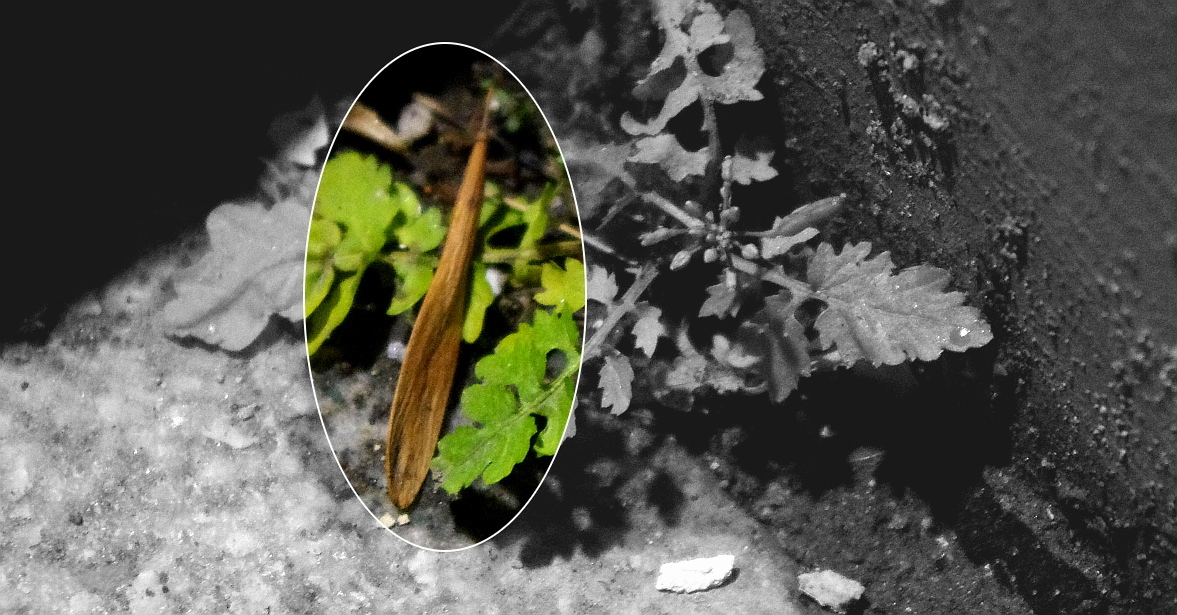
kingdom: Plantae
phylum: Tracheophyta
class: Magnoliopsida
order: Lamiales
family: Oleaceae
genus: Fraxinus
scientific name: Fraxinus pennsylvanica
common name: Green ash
